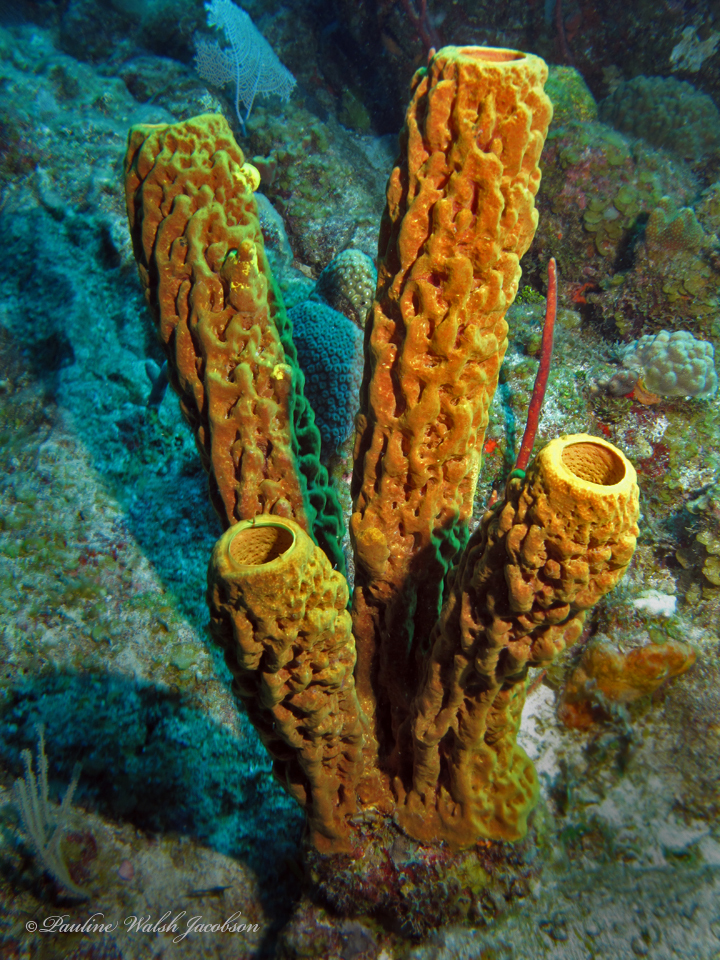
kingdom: Animalia
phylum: Porifera
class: Demospongiae
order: Verongiida
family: Aplysinidae
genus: Aplysina
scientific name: Aplysina fistularis
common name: Candle sponge
